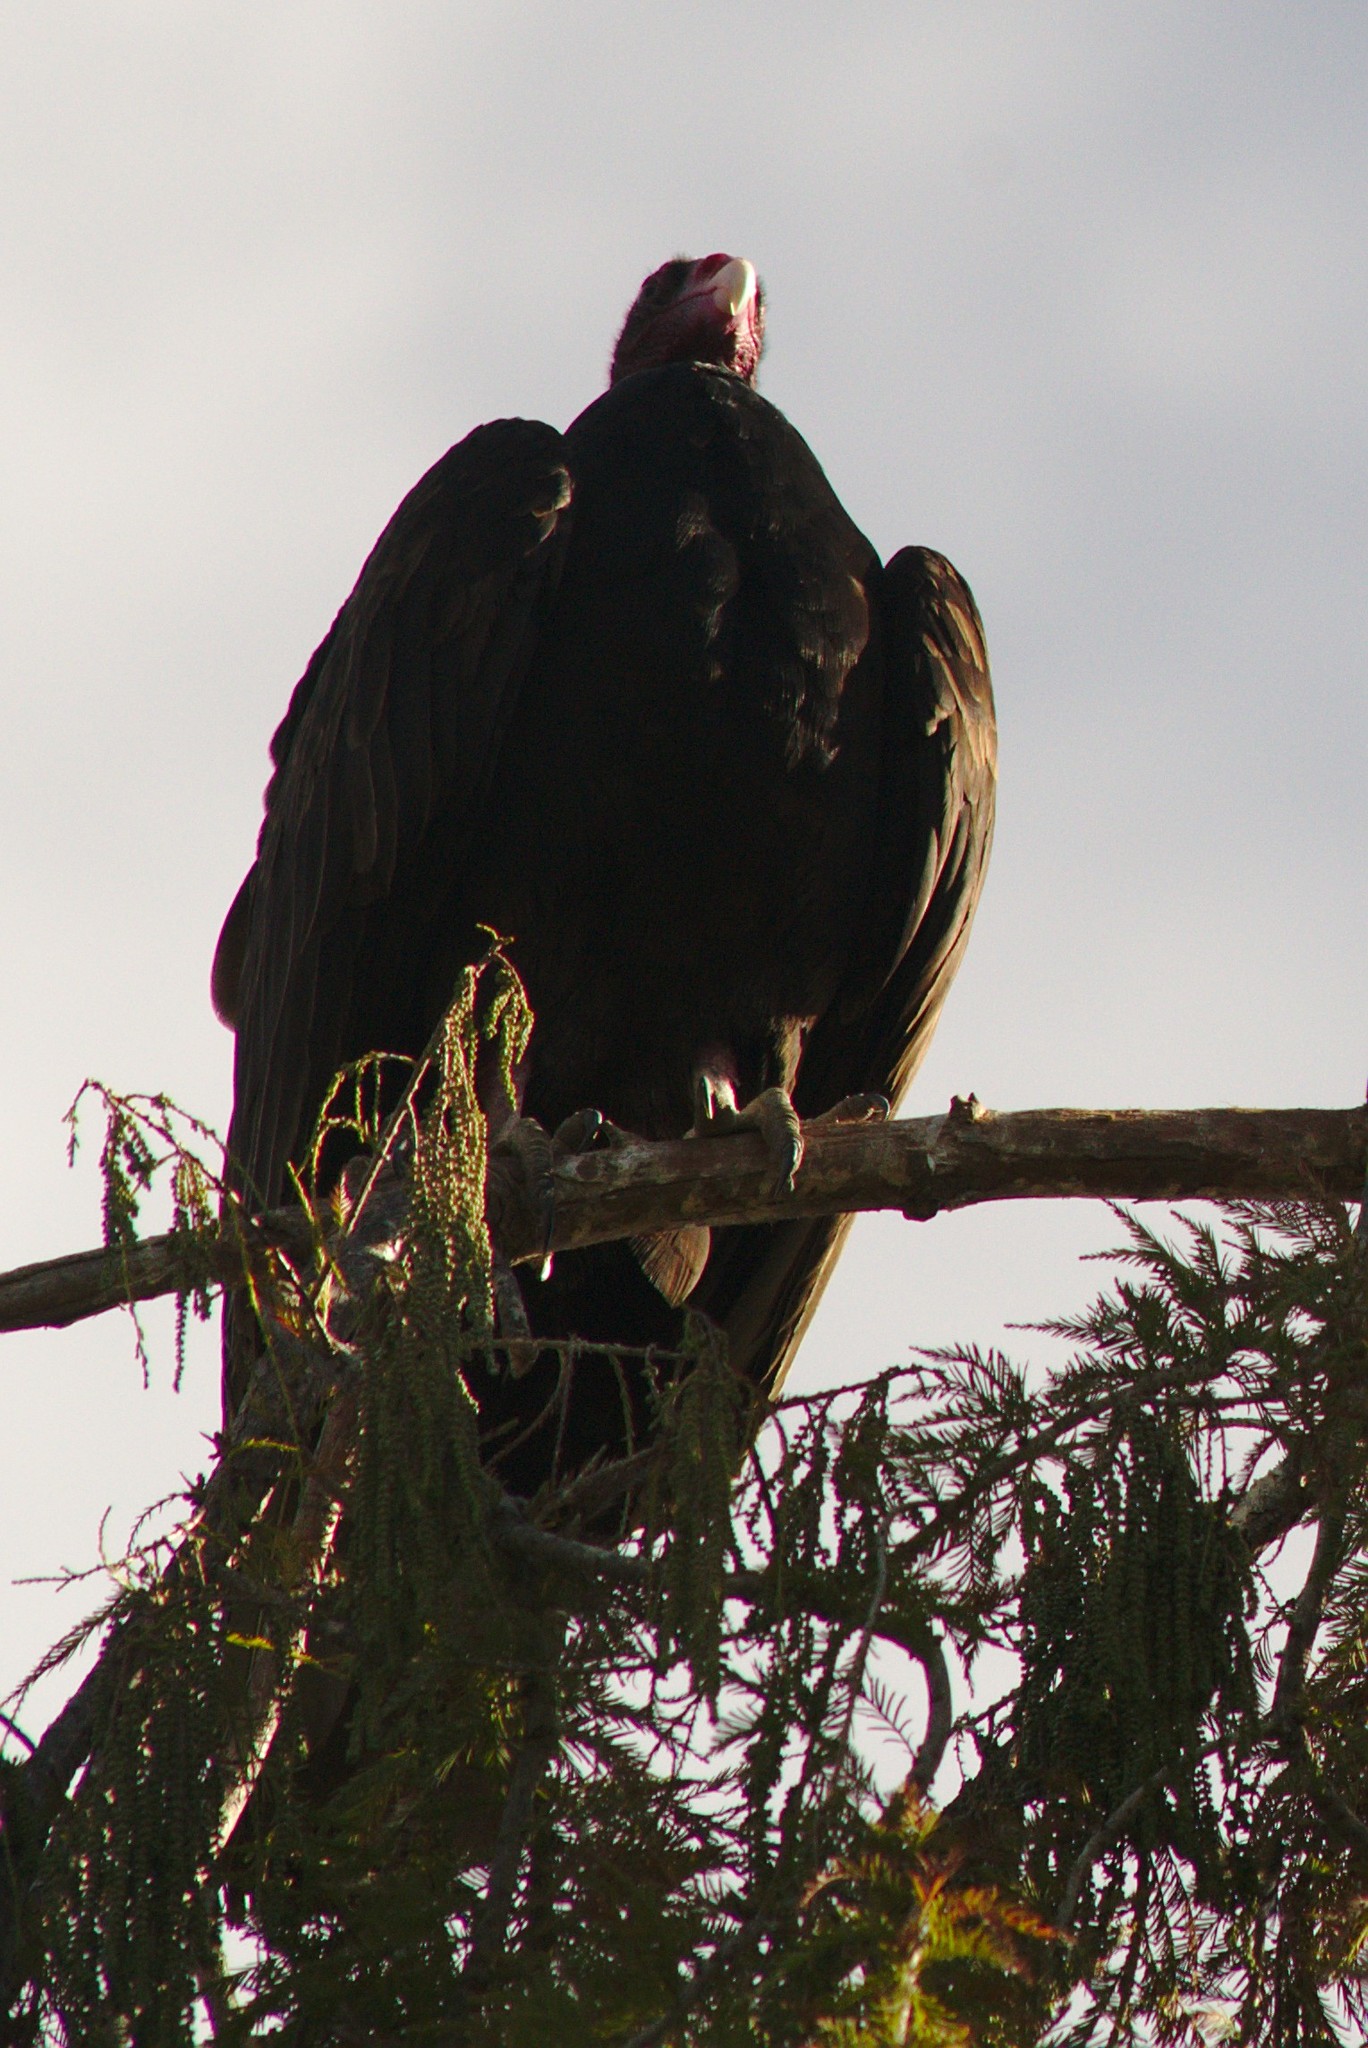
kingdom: Animalia
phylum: Chordata
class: Aves
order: Accipitriformes
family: Cathartidae
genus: Cathartes
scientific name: Cathartes aura
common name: Turkey vulture
